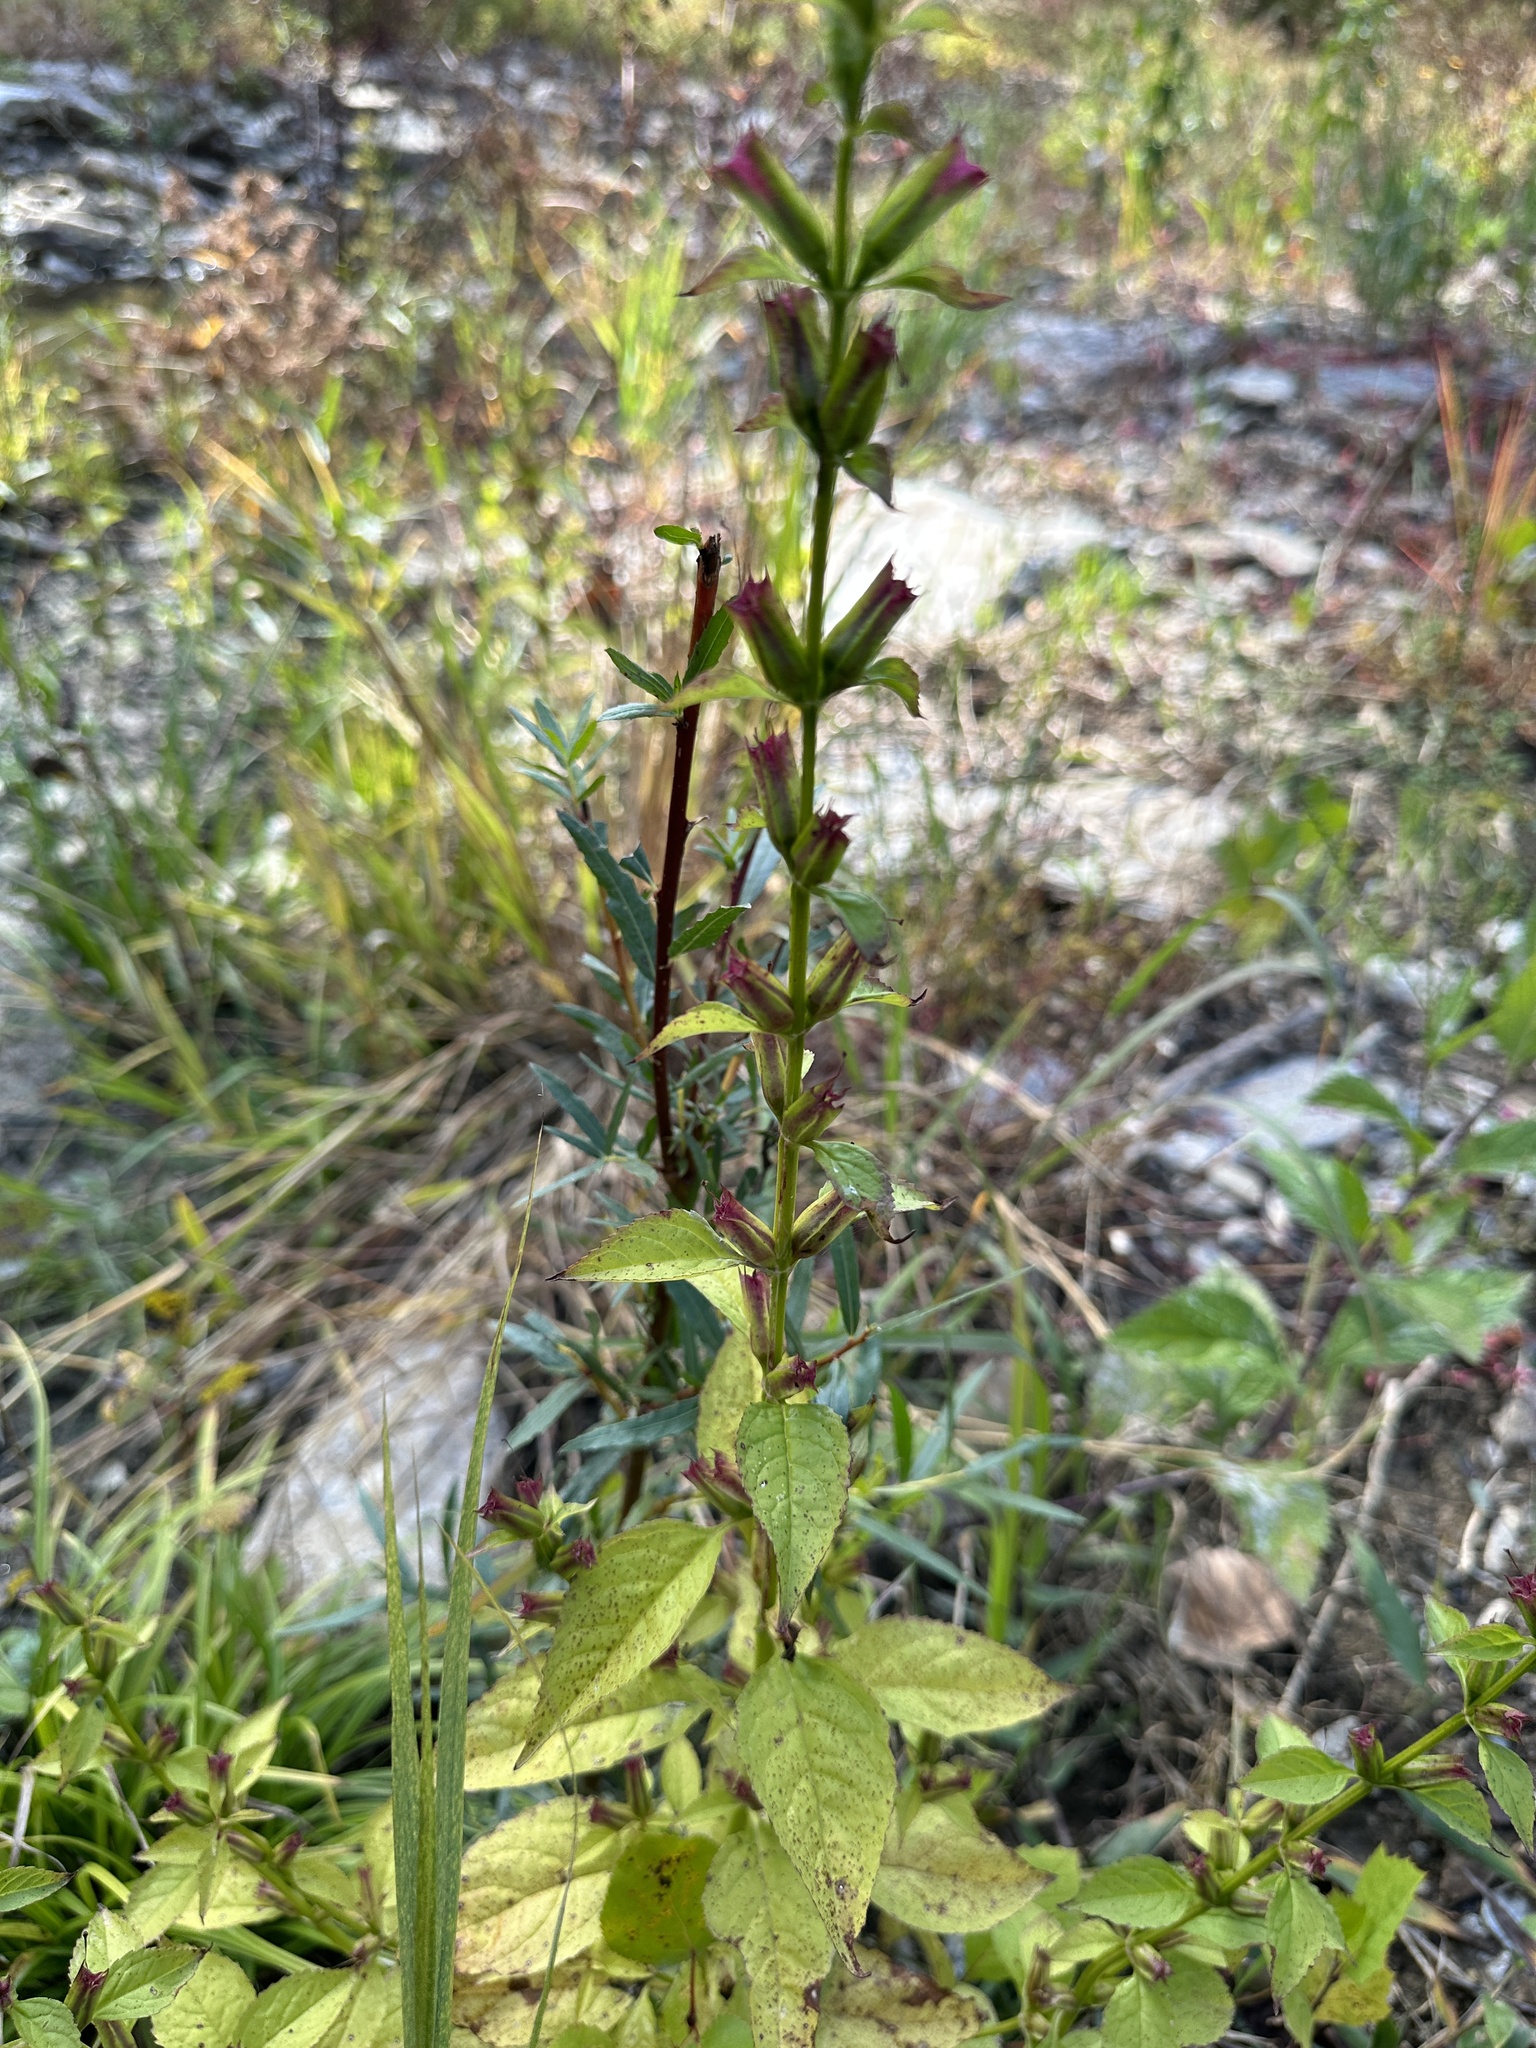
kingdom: Plantae
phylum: Tracheophyta
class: Magnoliopsida
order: Lamiales
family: Phrymaceae
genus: Mimulus
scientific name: Mimulus alatus
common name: Sharp-wing monkey-flower
